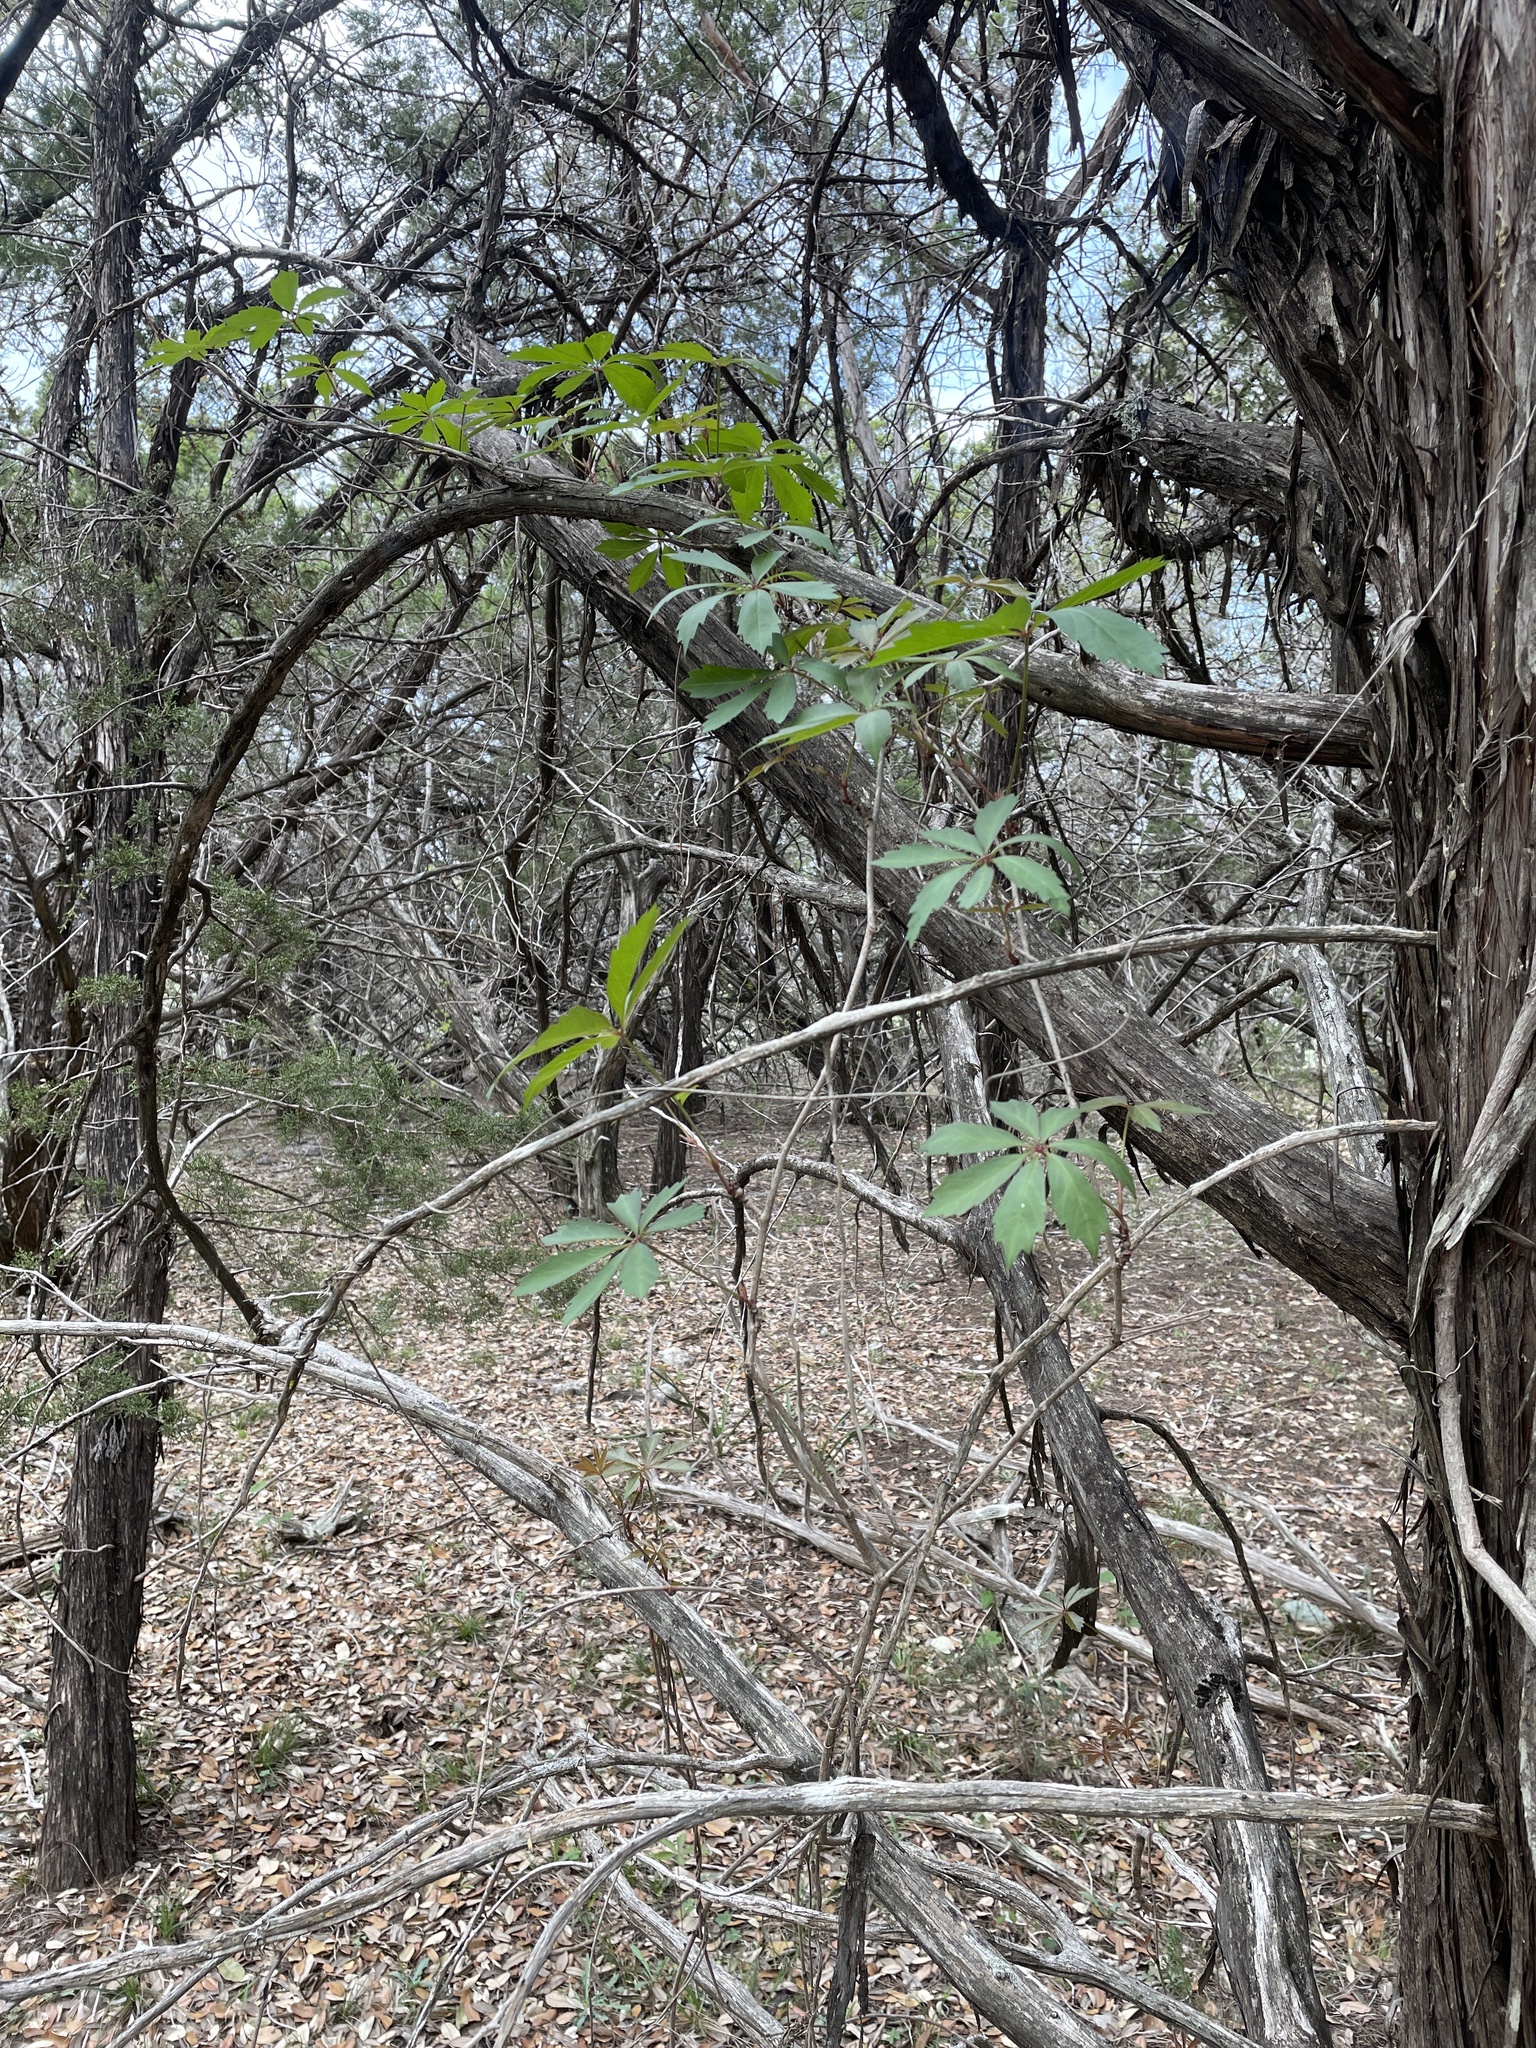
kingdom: Plantae
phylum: Tracheophyta
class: Magnoliopsida
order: Vitales
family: Vitaceae
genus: Parthenocissus
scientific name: Parthenocissus heptaphylla
